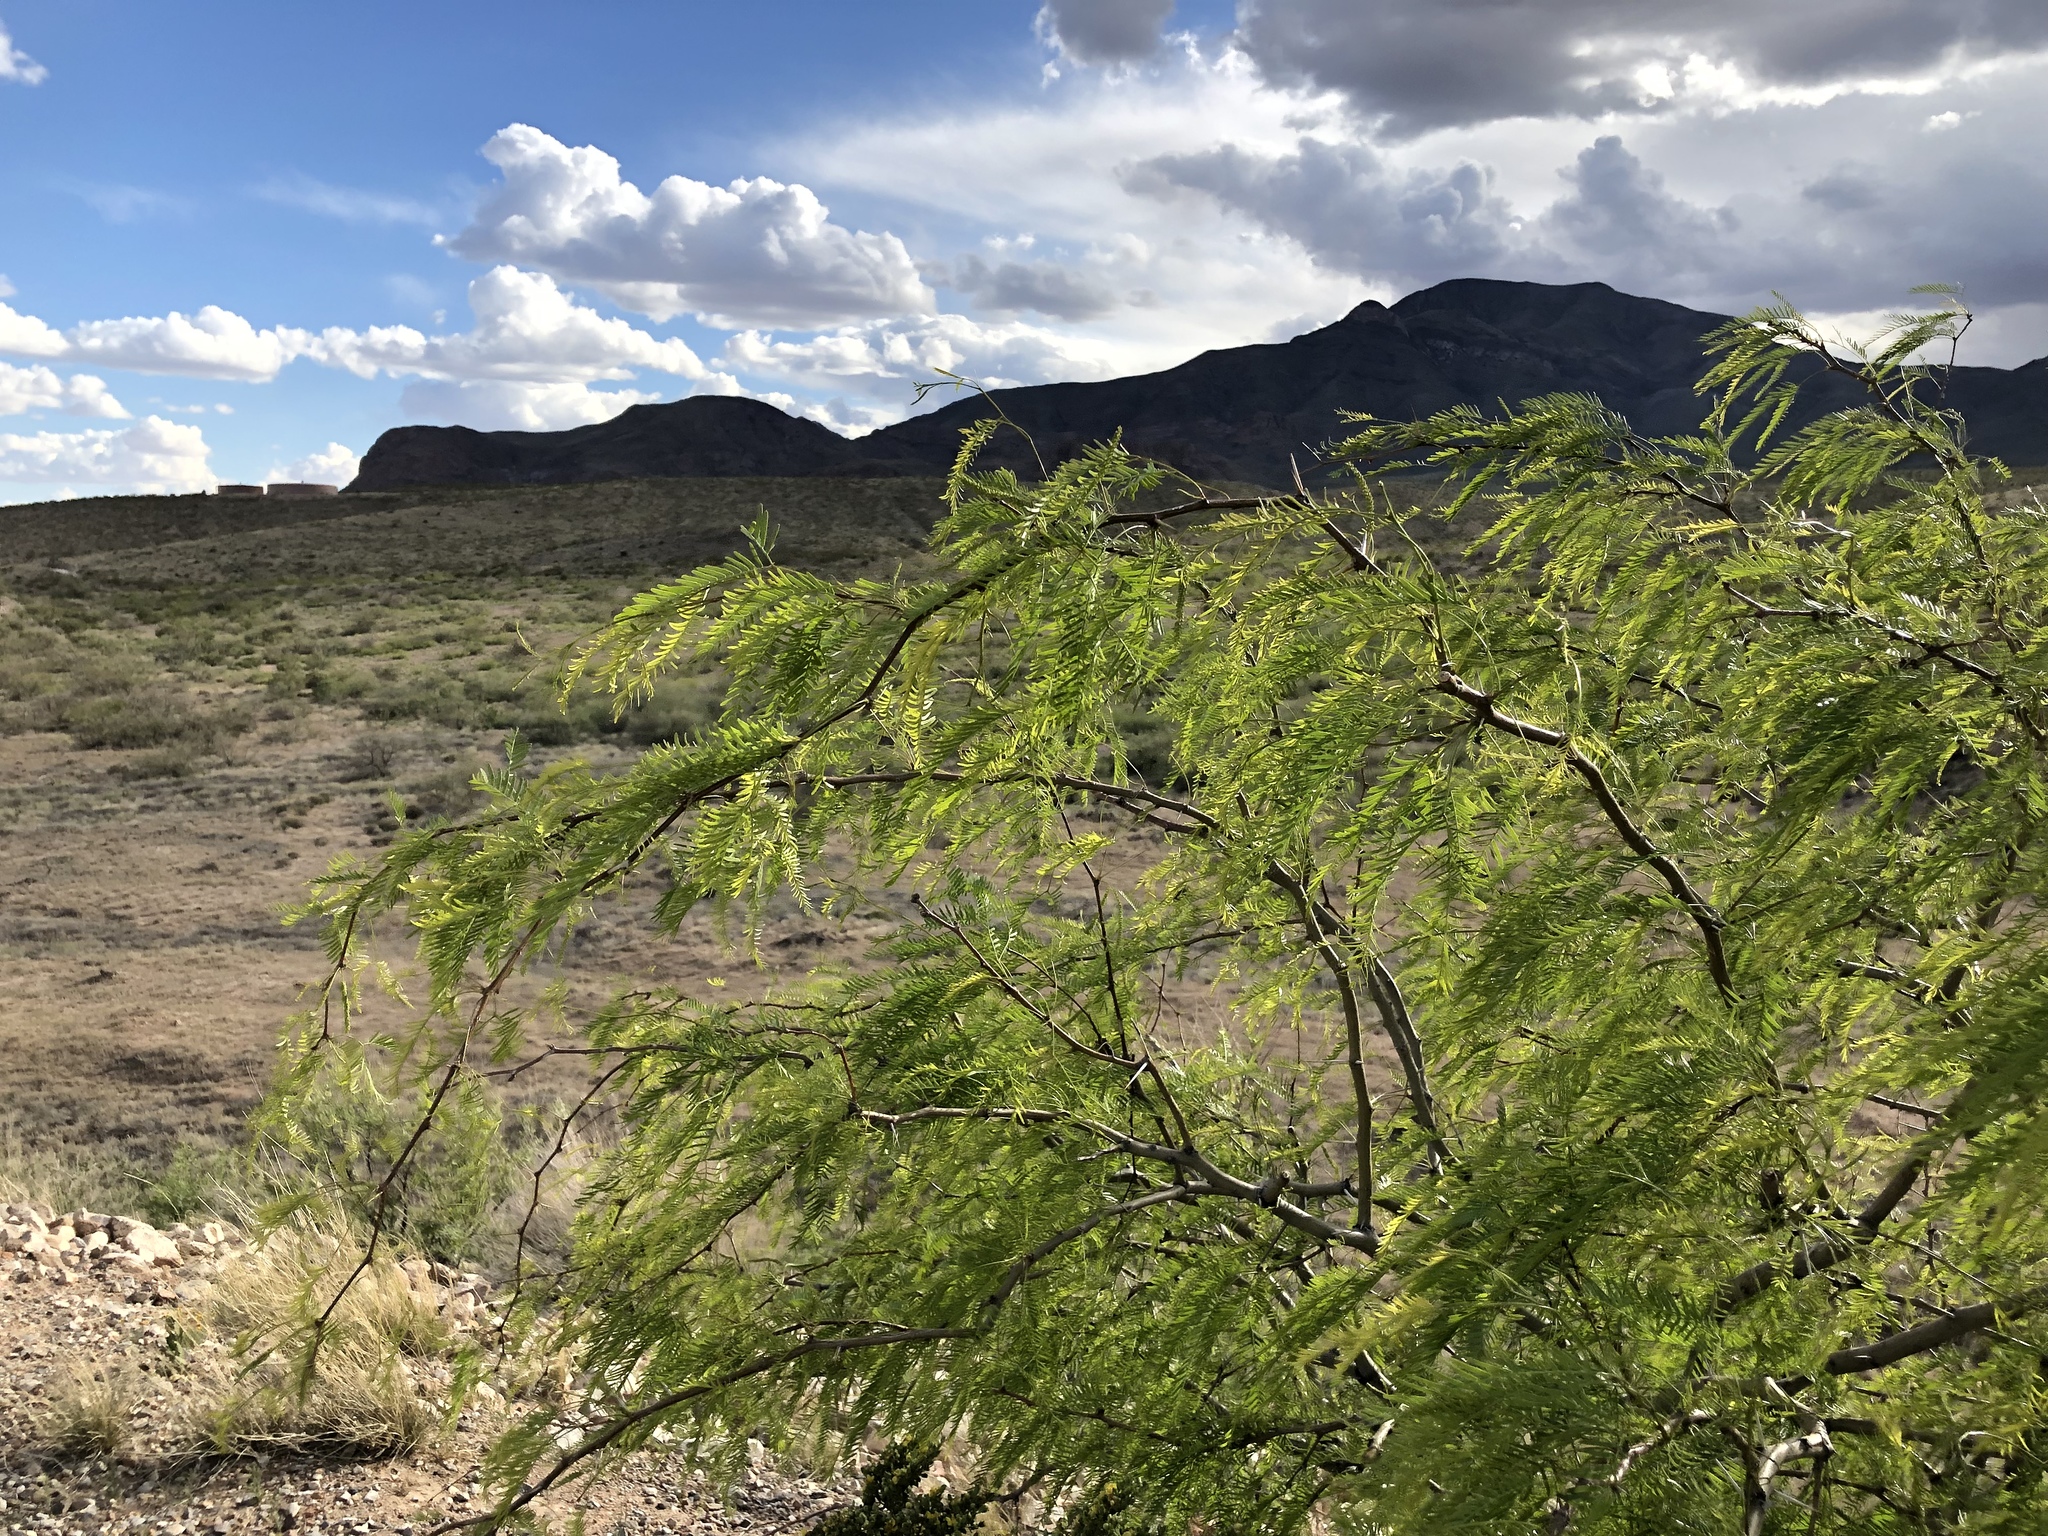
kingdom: Plantae
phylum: Tracheophyta
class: Magnoliopsida
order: Fabales
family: Fabaceae
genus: Prosopis
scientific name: Prosopis glandulosa
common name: Honey mesquite
